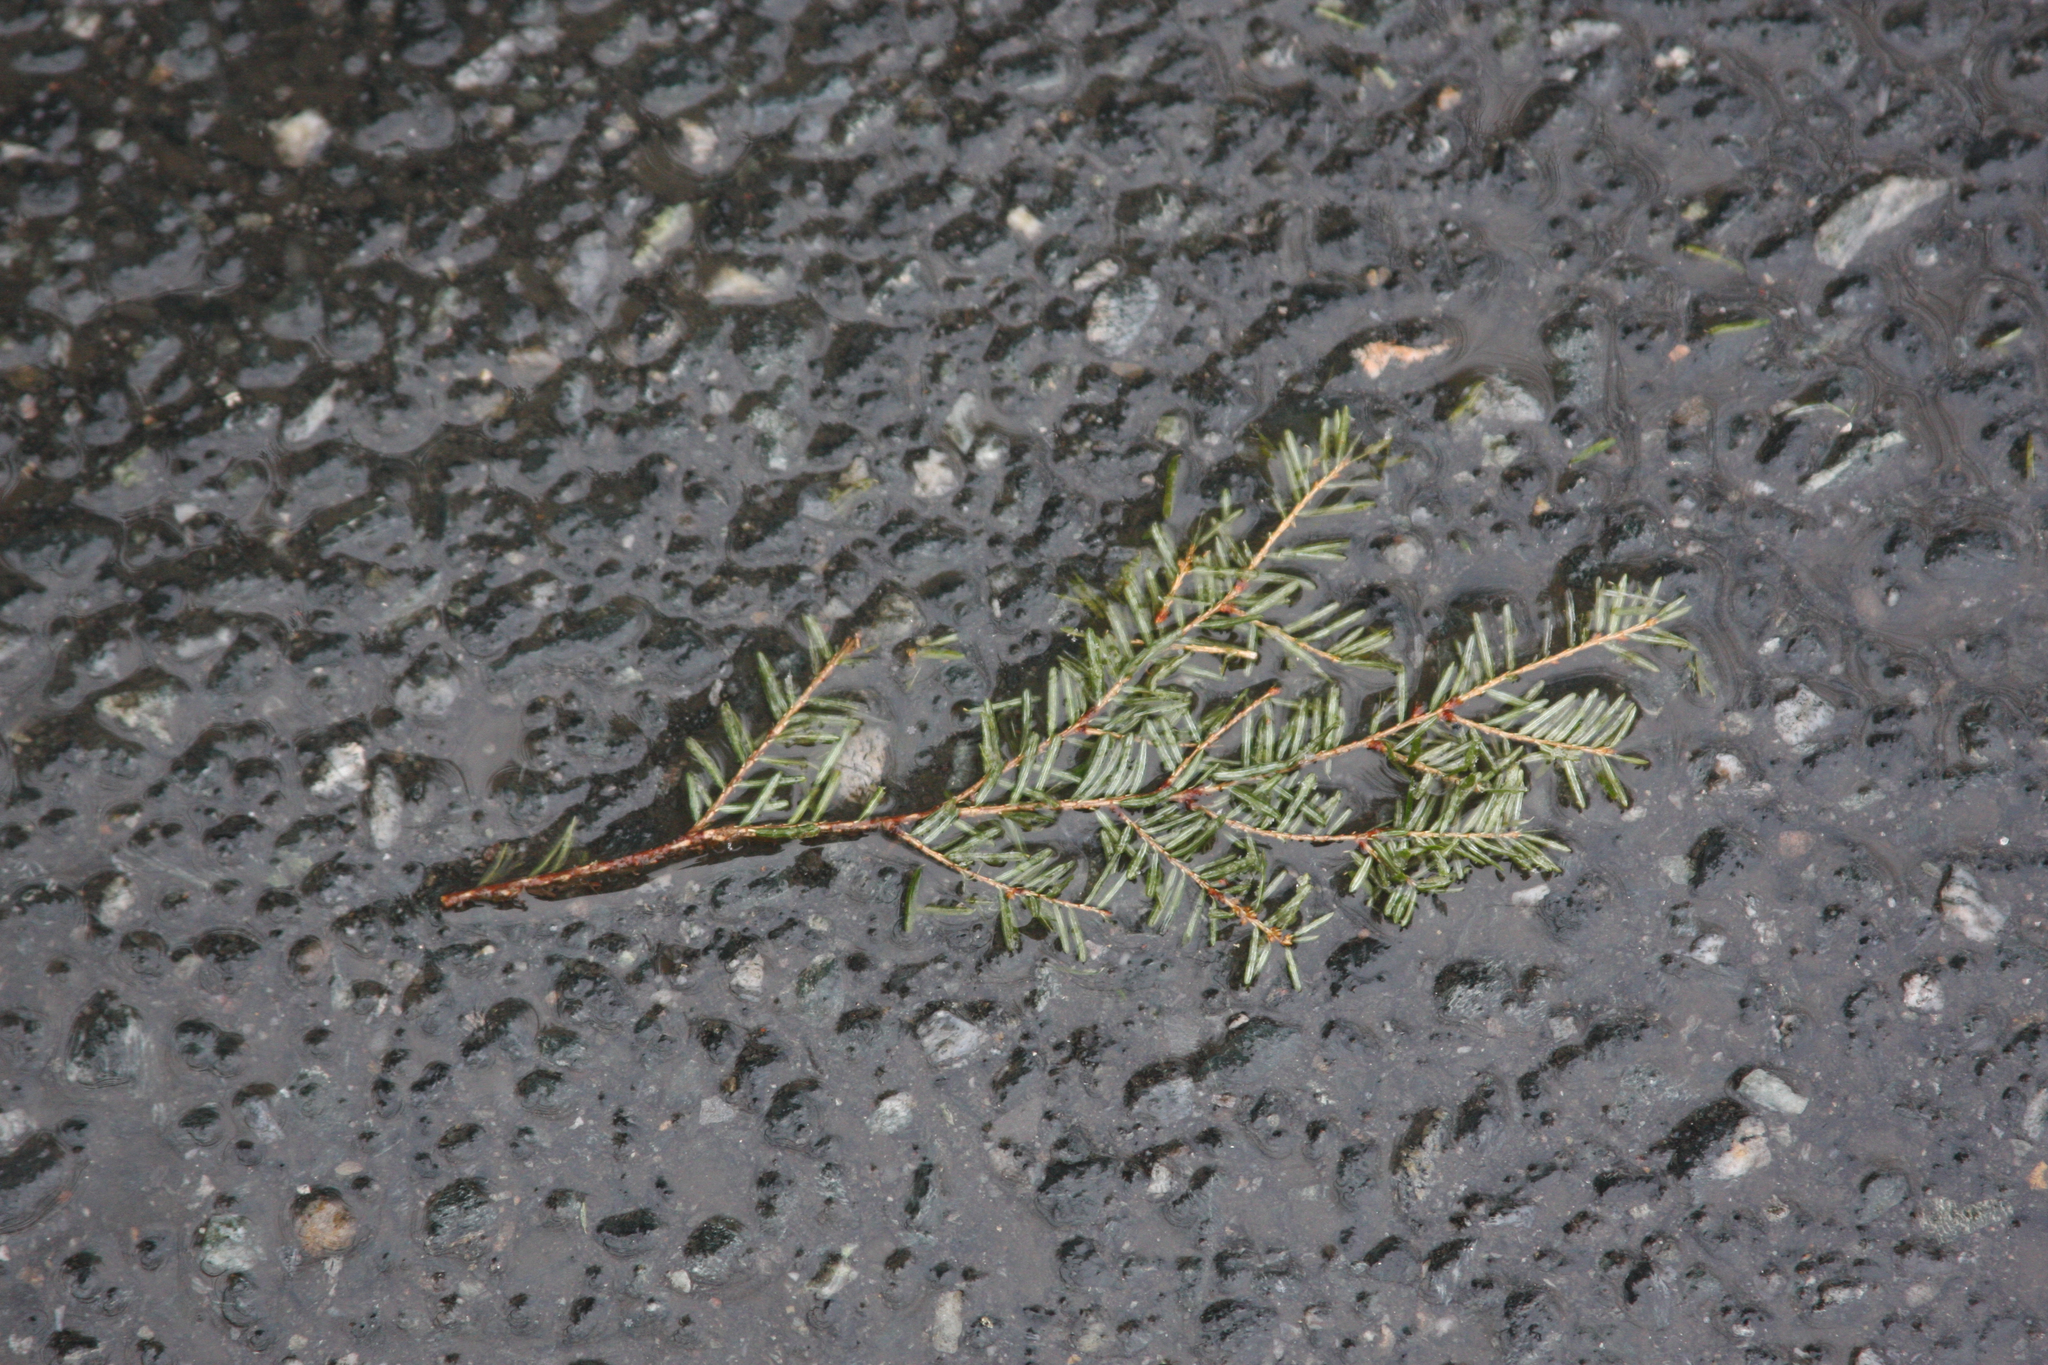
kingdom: Plantae
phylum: Tracheophyta
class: Pinopsida
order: Pinales
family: Pinaceae
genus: Tsuga
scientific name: Tsuga canadensis
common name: Eastern hemlock
